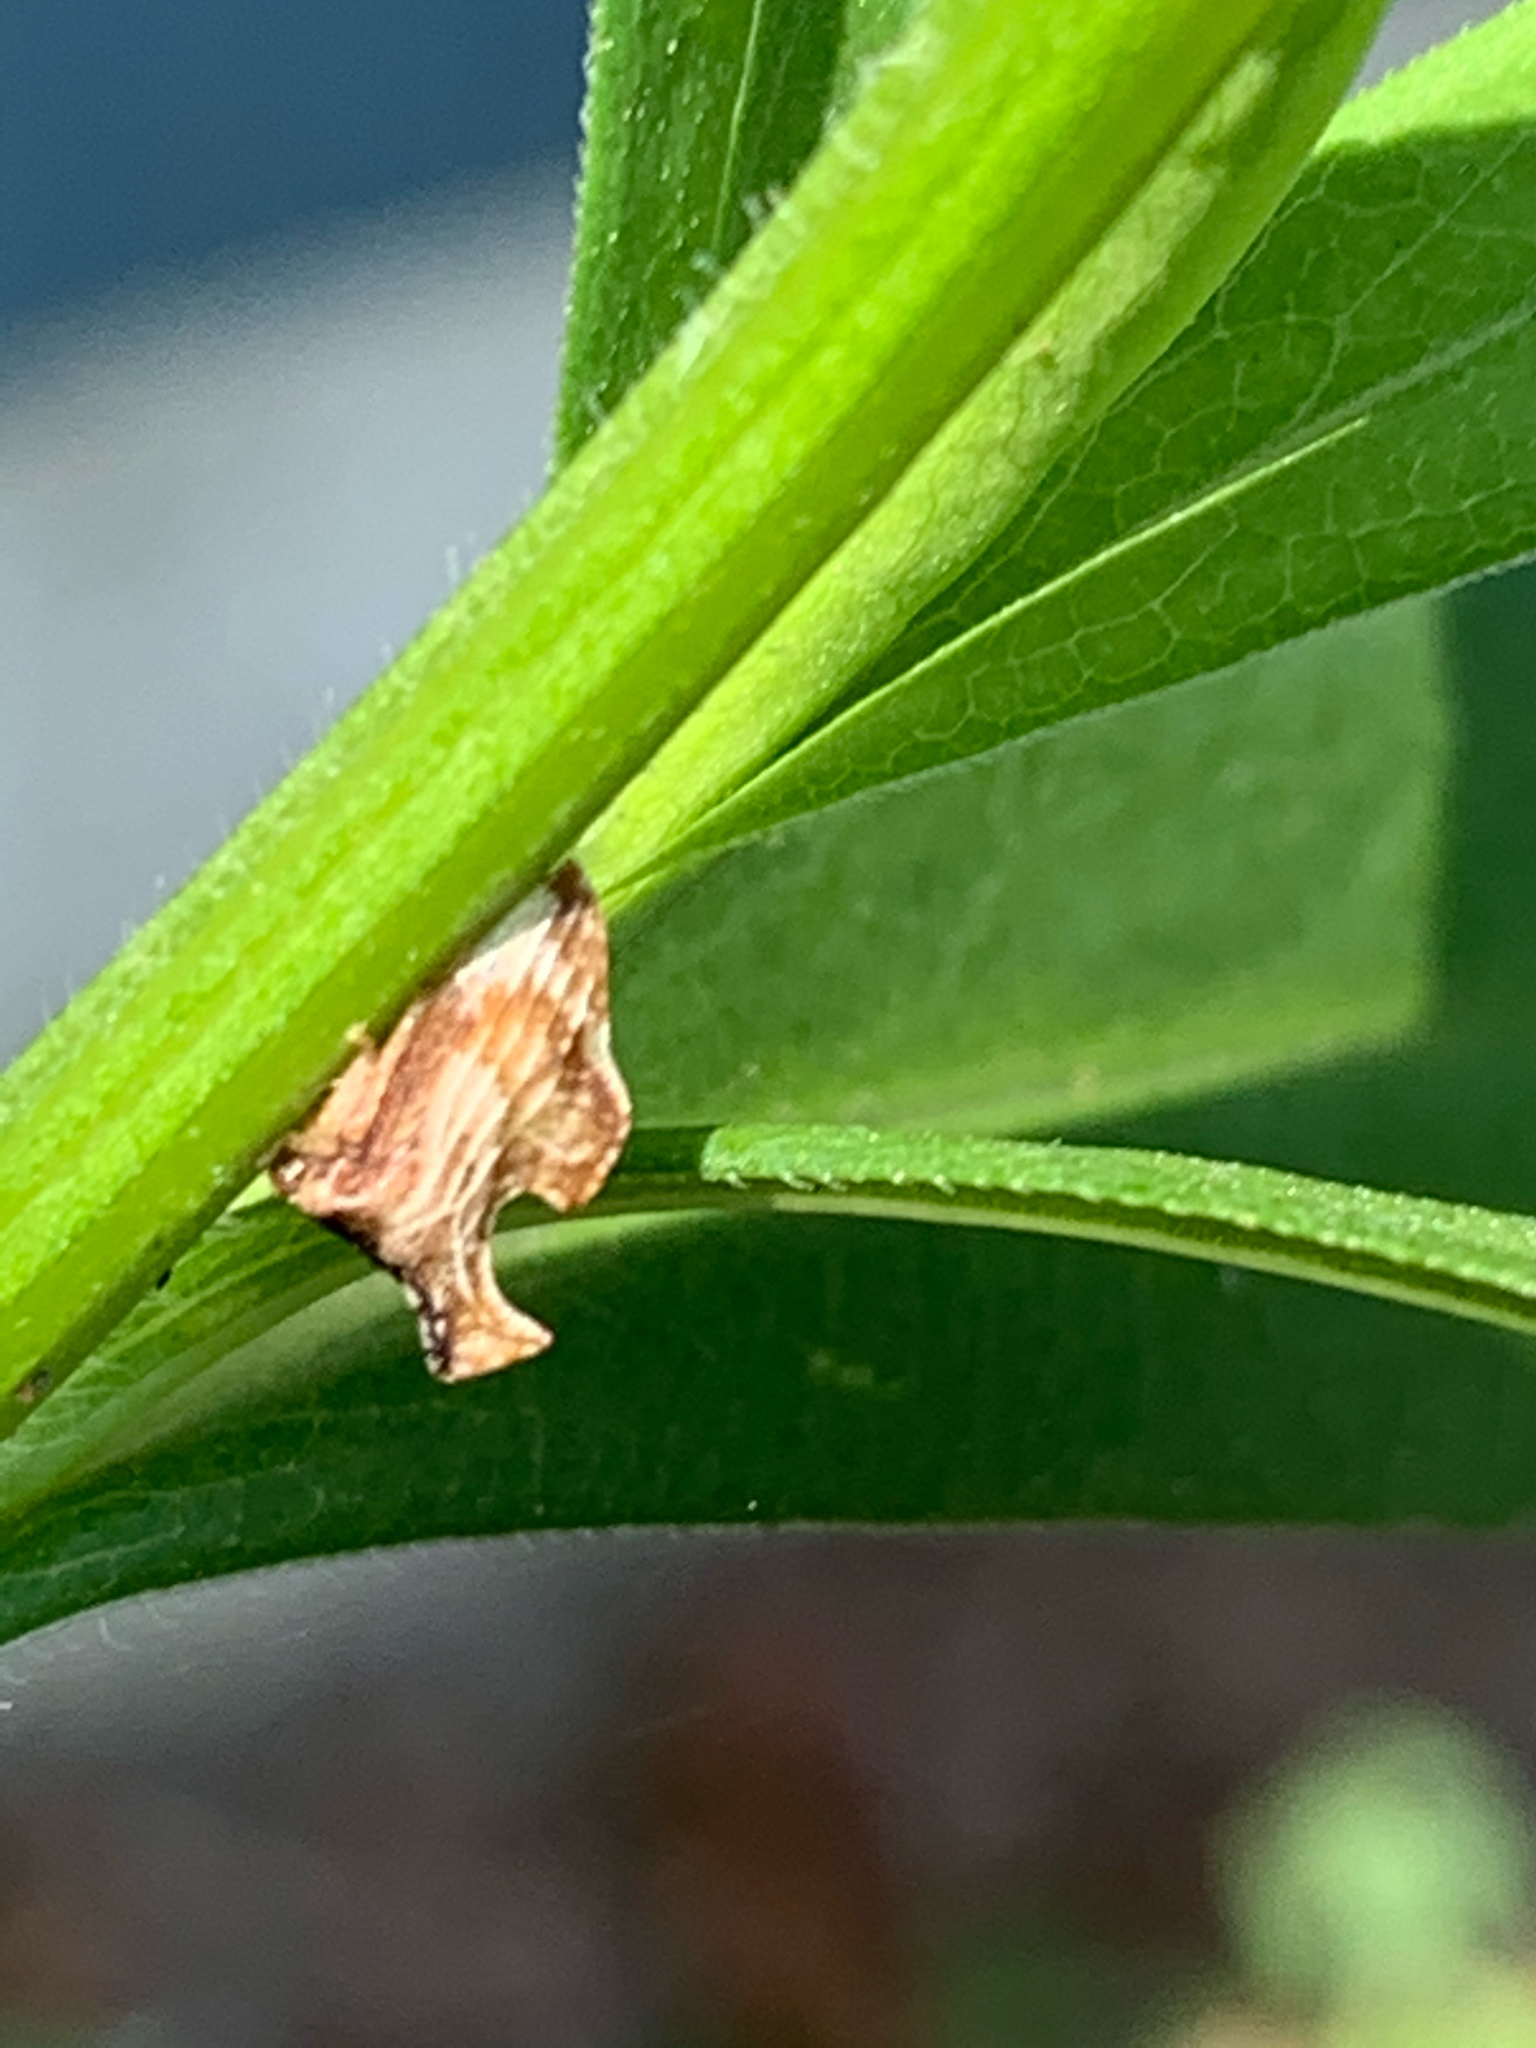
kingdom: Animalia
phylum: Arthropoda
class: Insecta
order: Hemiptera
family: Membracidae
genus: Entylia
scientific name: Entylia carinata
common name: Keeled treehopper
